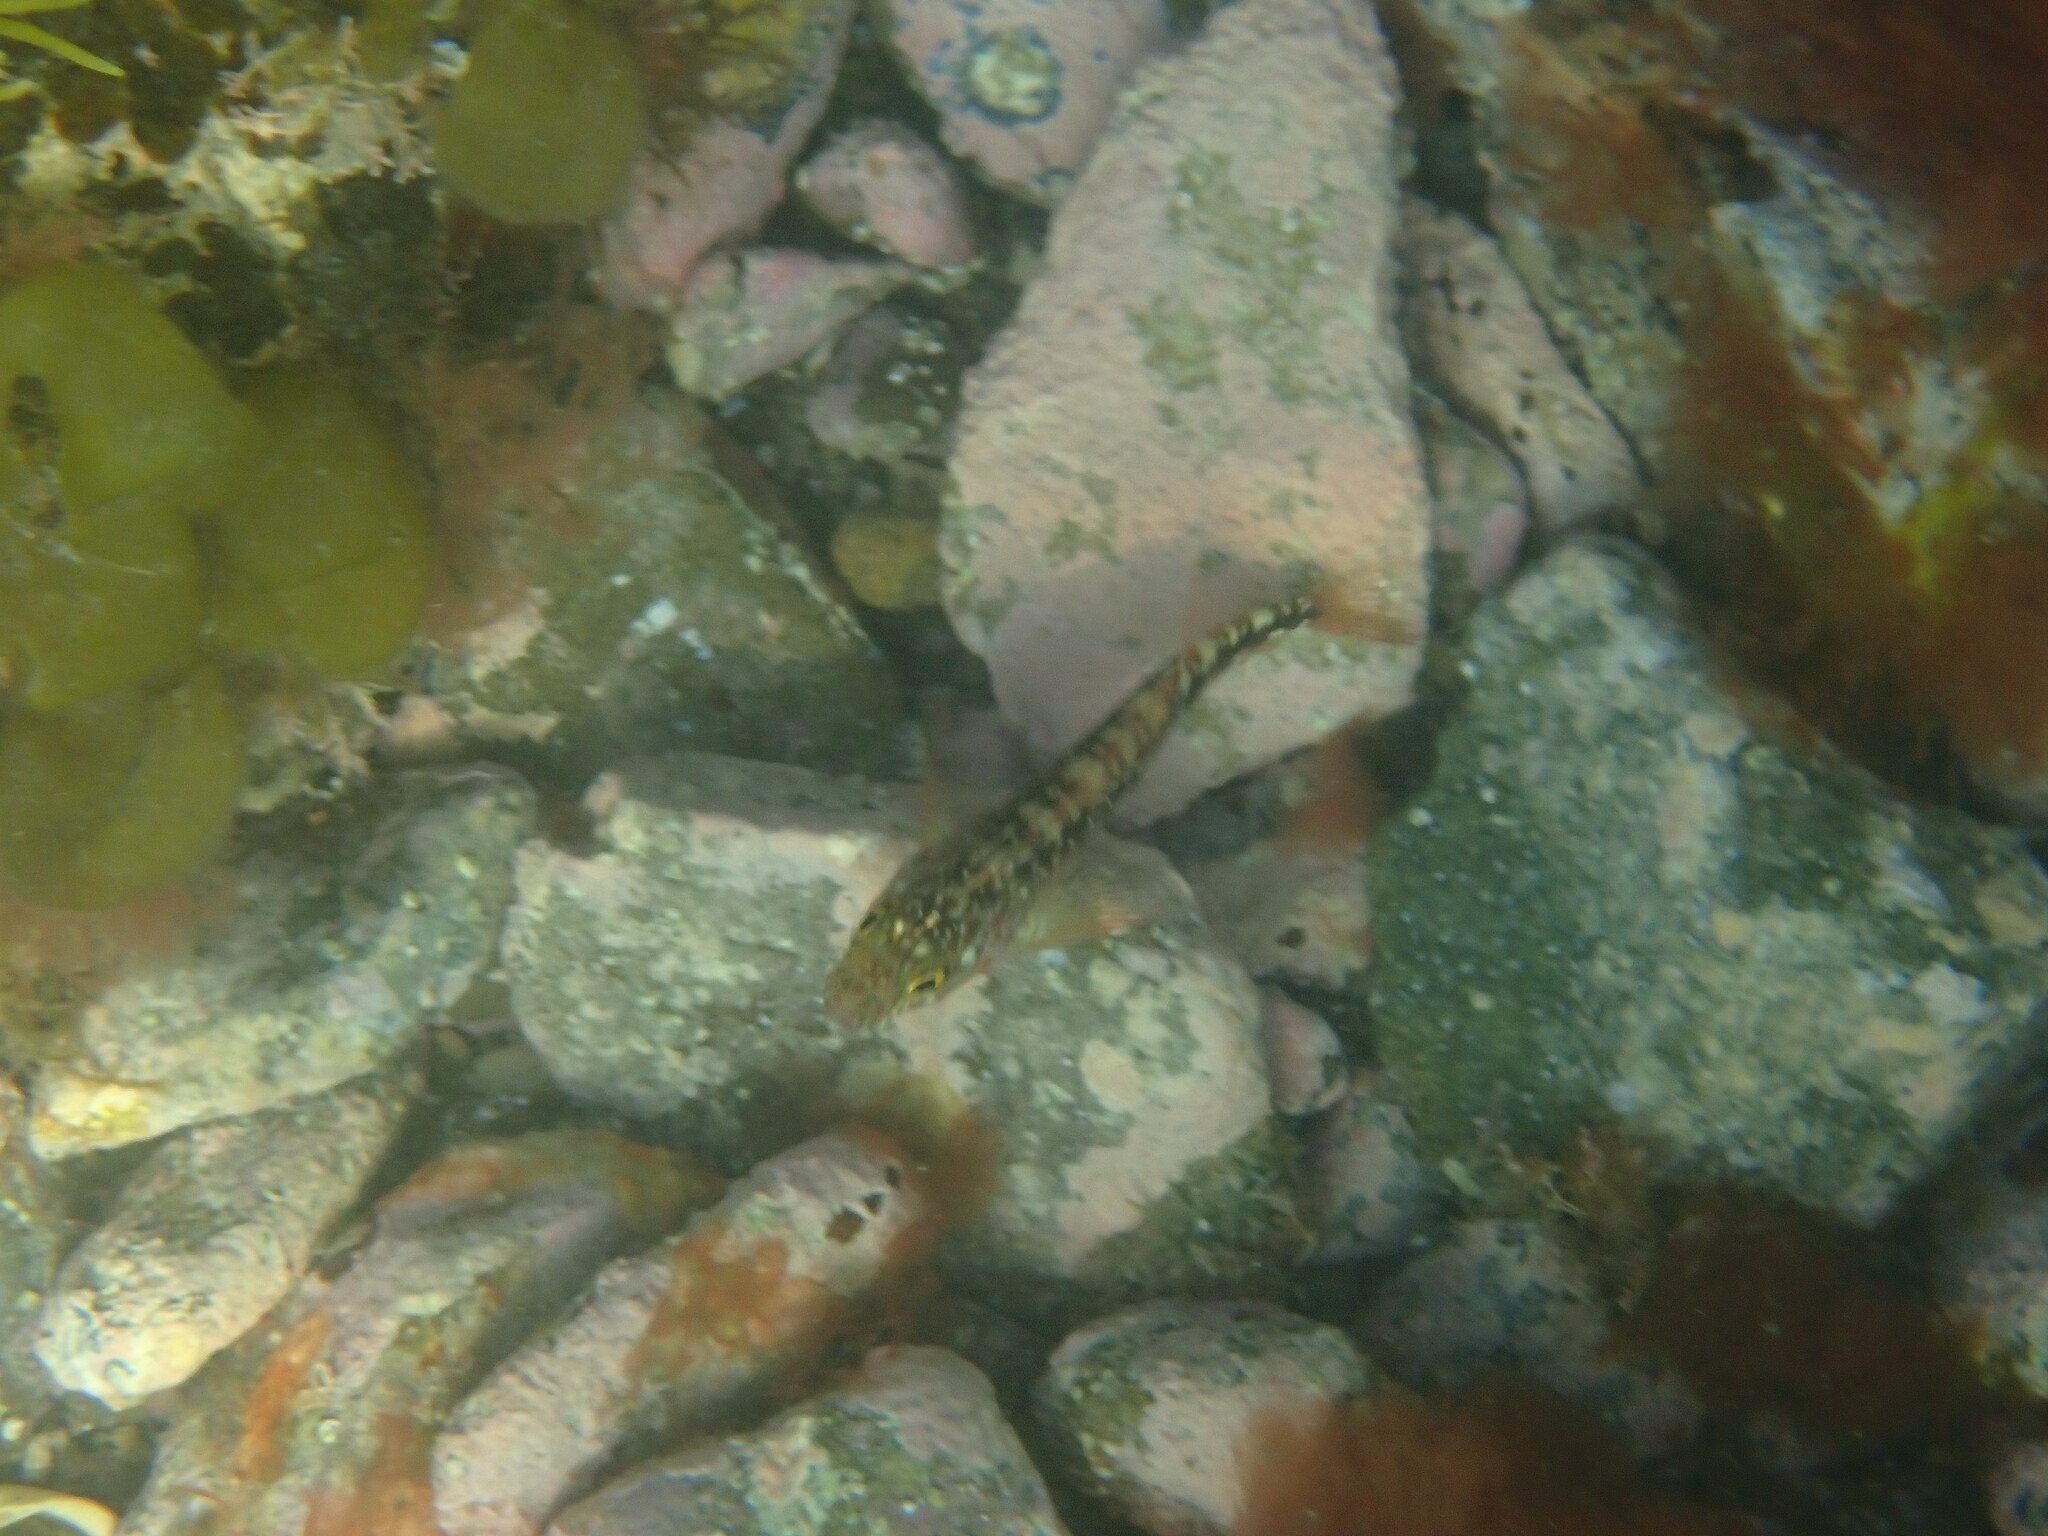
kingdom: Animalia
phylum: Chordata
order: Perciformes
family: Tripterygiidae
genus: Forsterygion
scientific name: Forsterygion varium
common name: Variable triplefin
